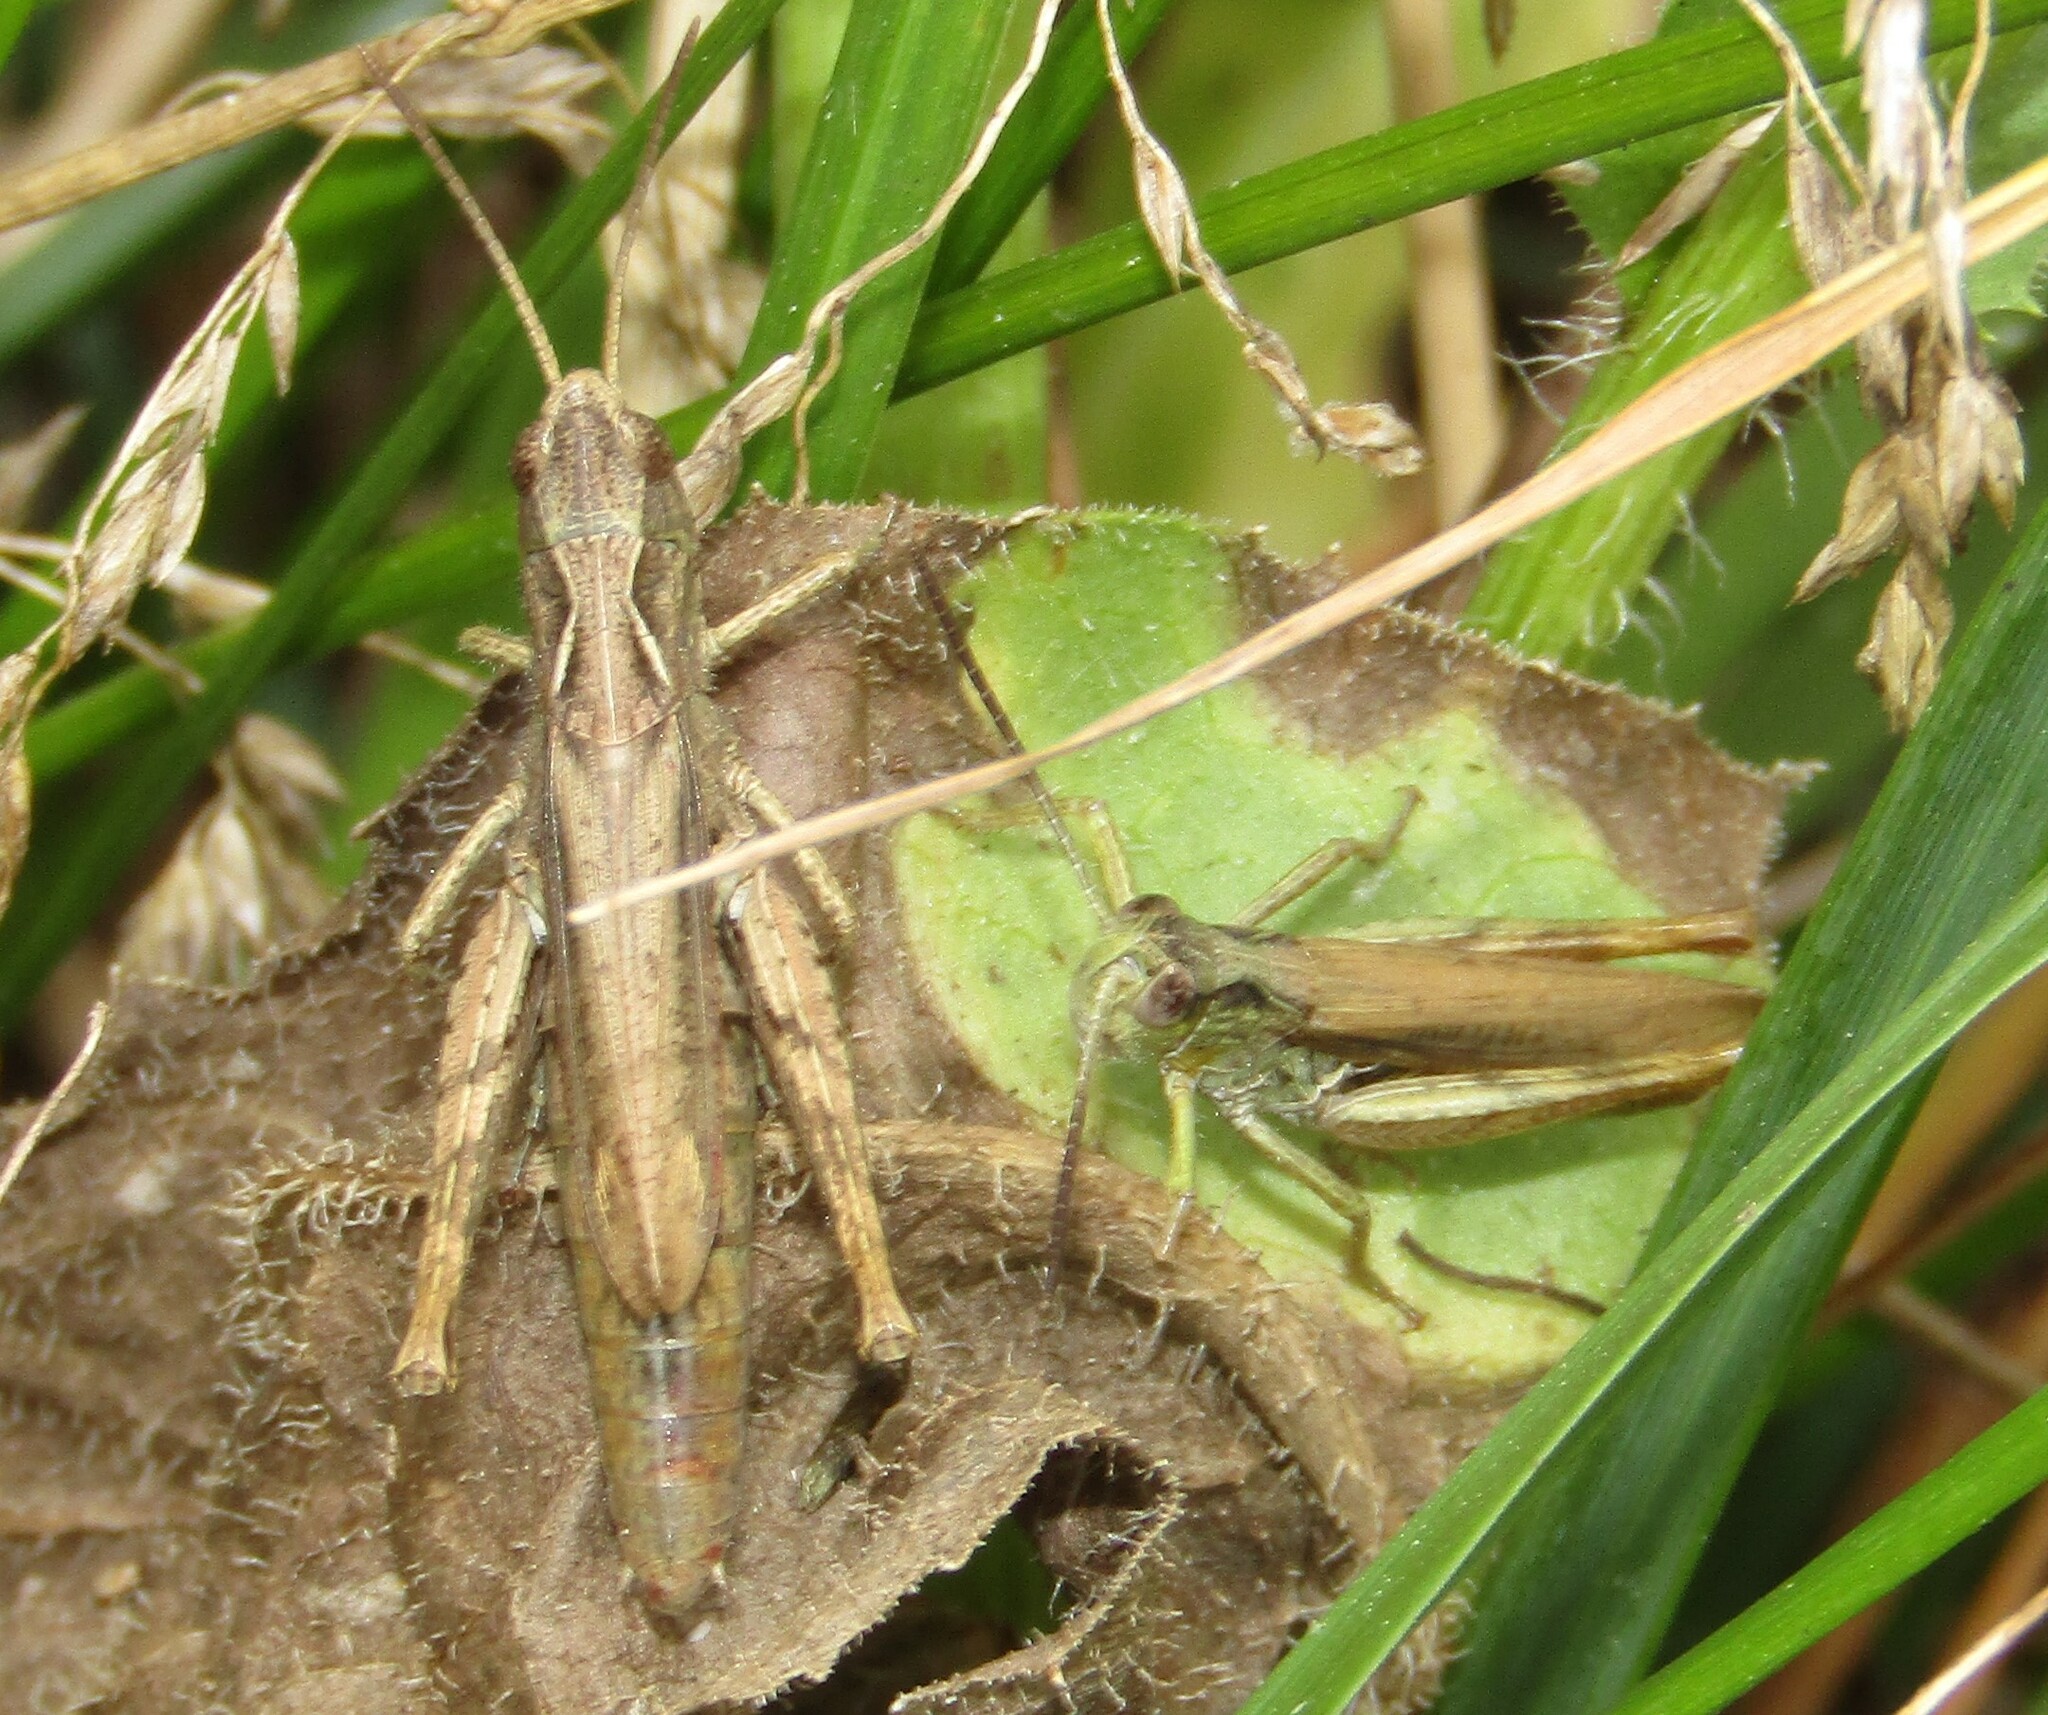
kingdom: Animalia
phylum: Arthropoda
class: Insecta
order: Orthoptera
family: Acrididae
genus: Chorthippus
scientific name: Chorthippus apricarius
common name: Upland field grasshopper
